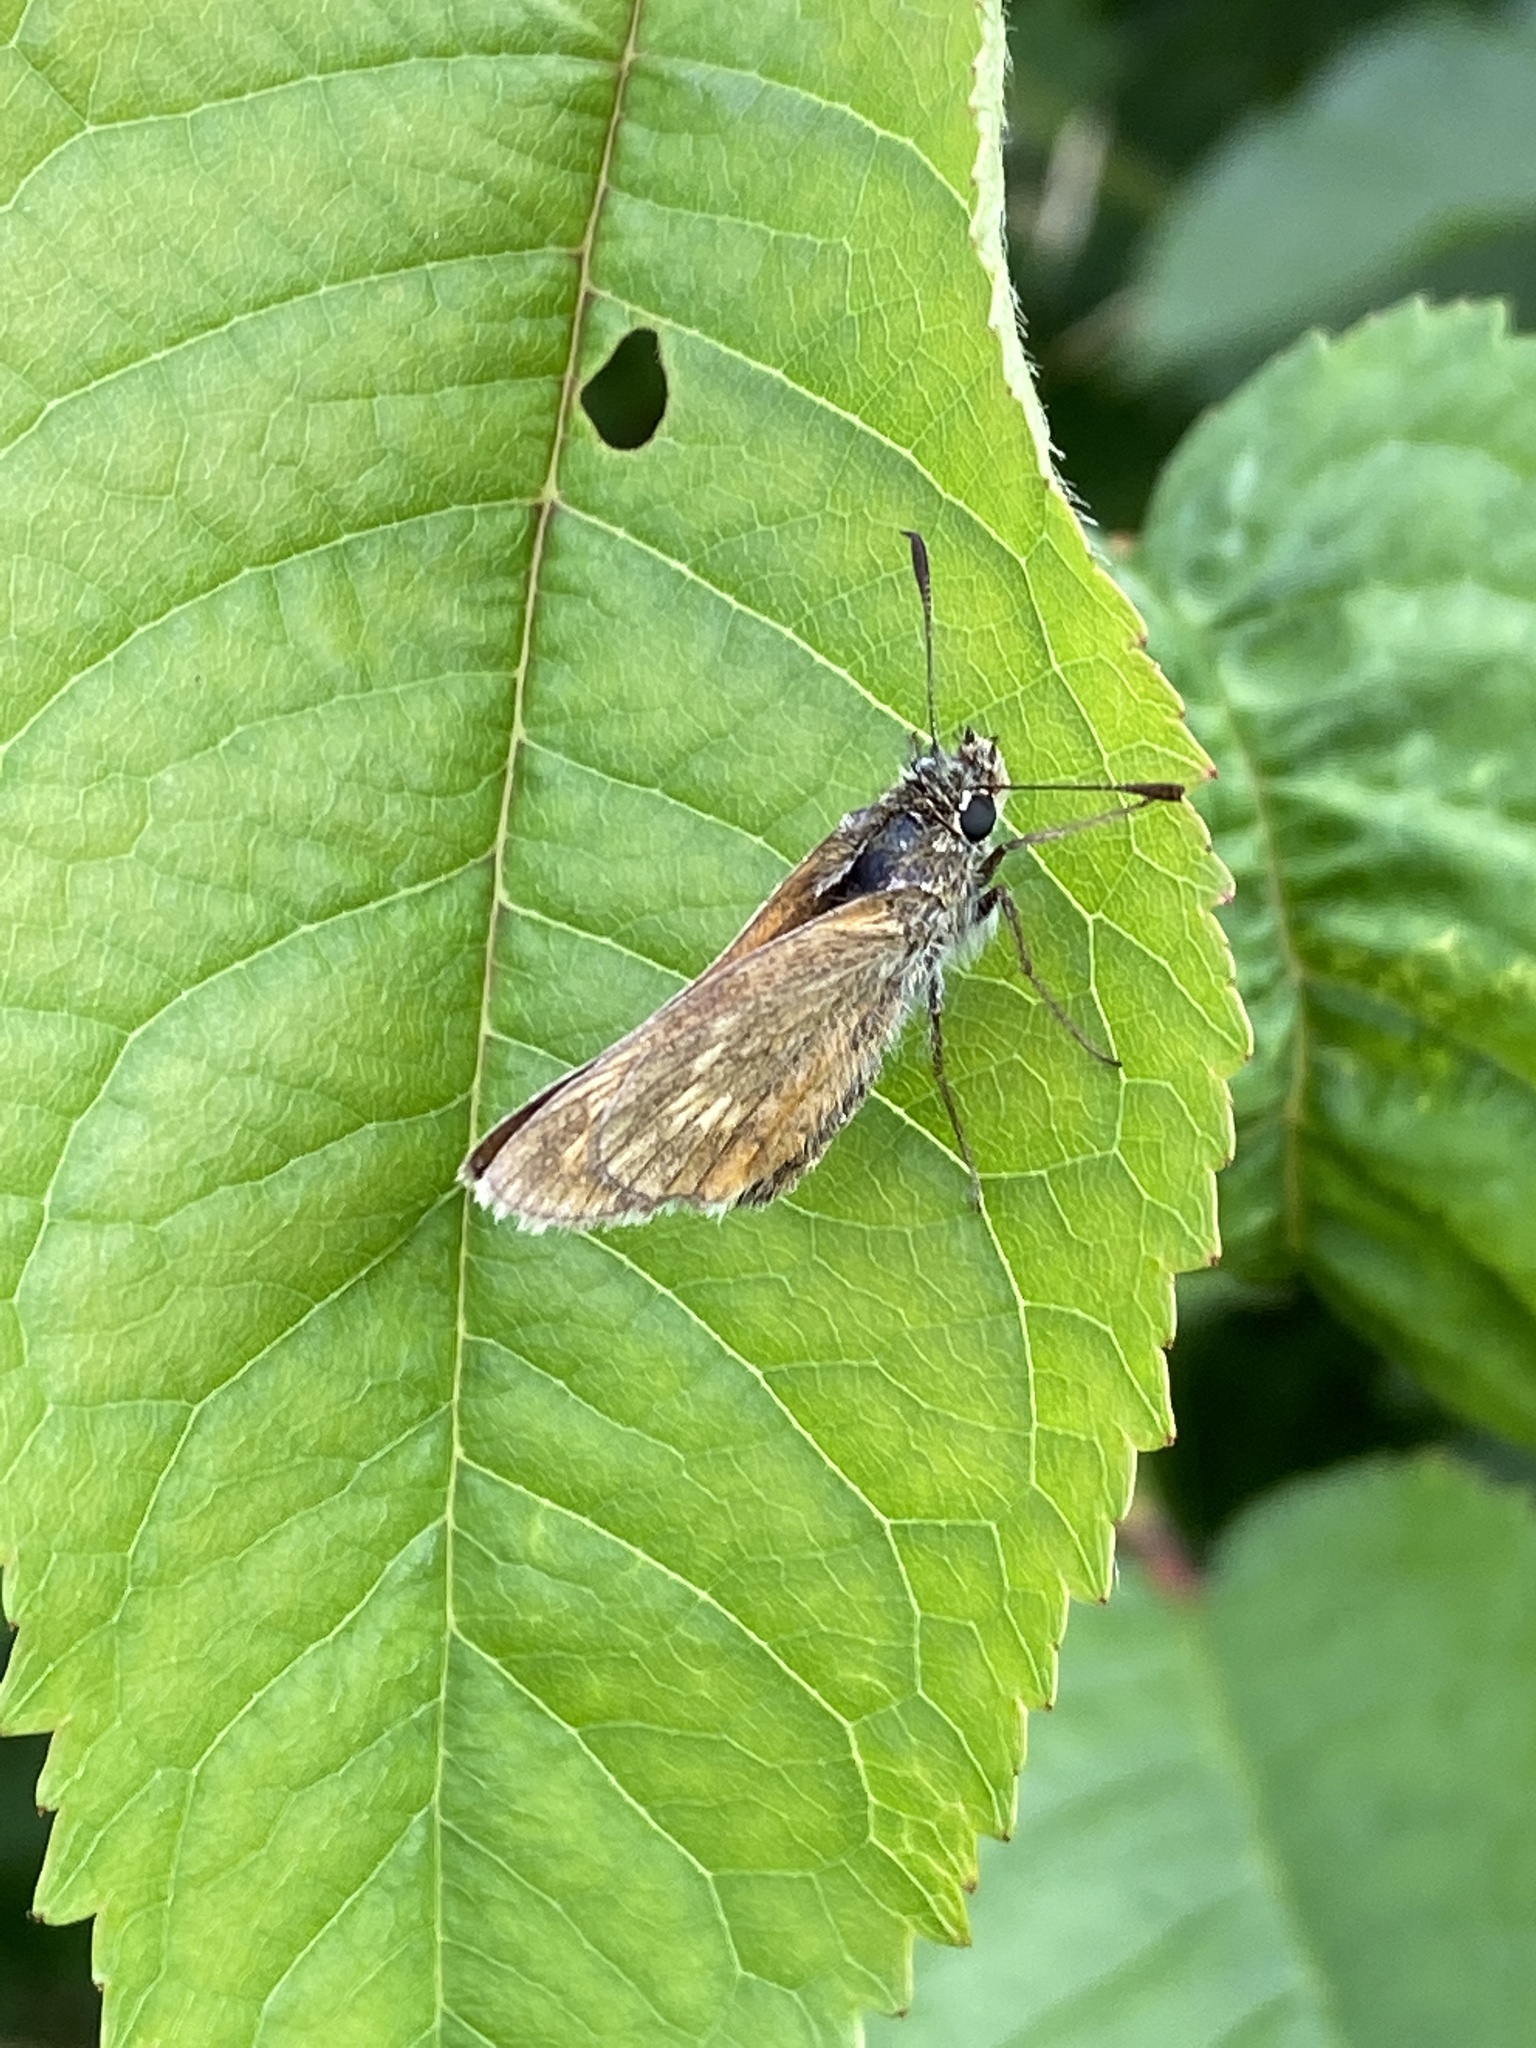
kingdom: Animalia
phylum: Arthropoda
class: Insecta
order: Lepidoptera
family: Hesperiidae
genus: Ochlodes
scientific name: Ochlodes venata
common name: Large skipper
